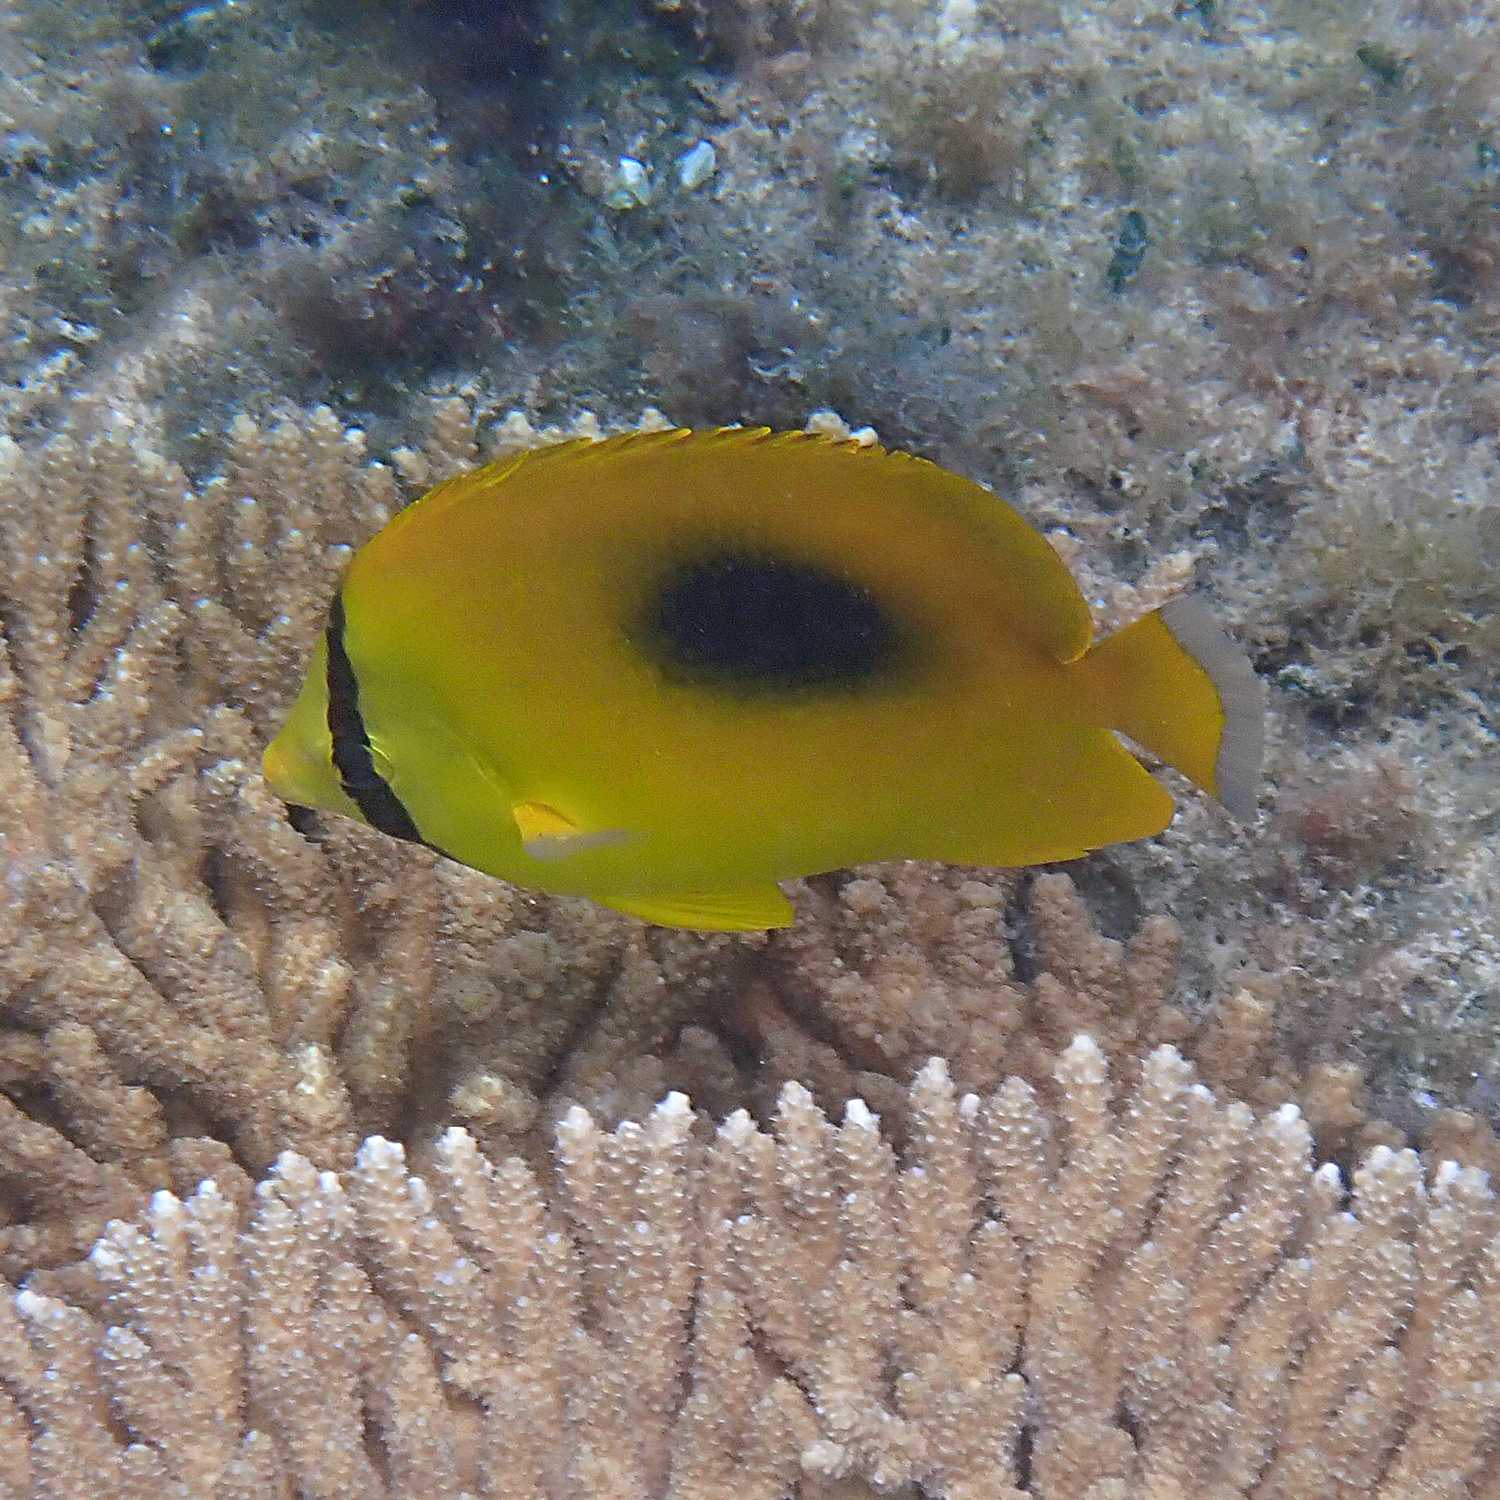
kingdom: Animalia
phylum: Chordata
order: Perciformes
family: Chaetodontidae
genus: Chaetodon
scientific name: Chaetodon speculum
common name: Mirror butterflyfish
